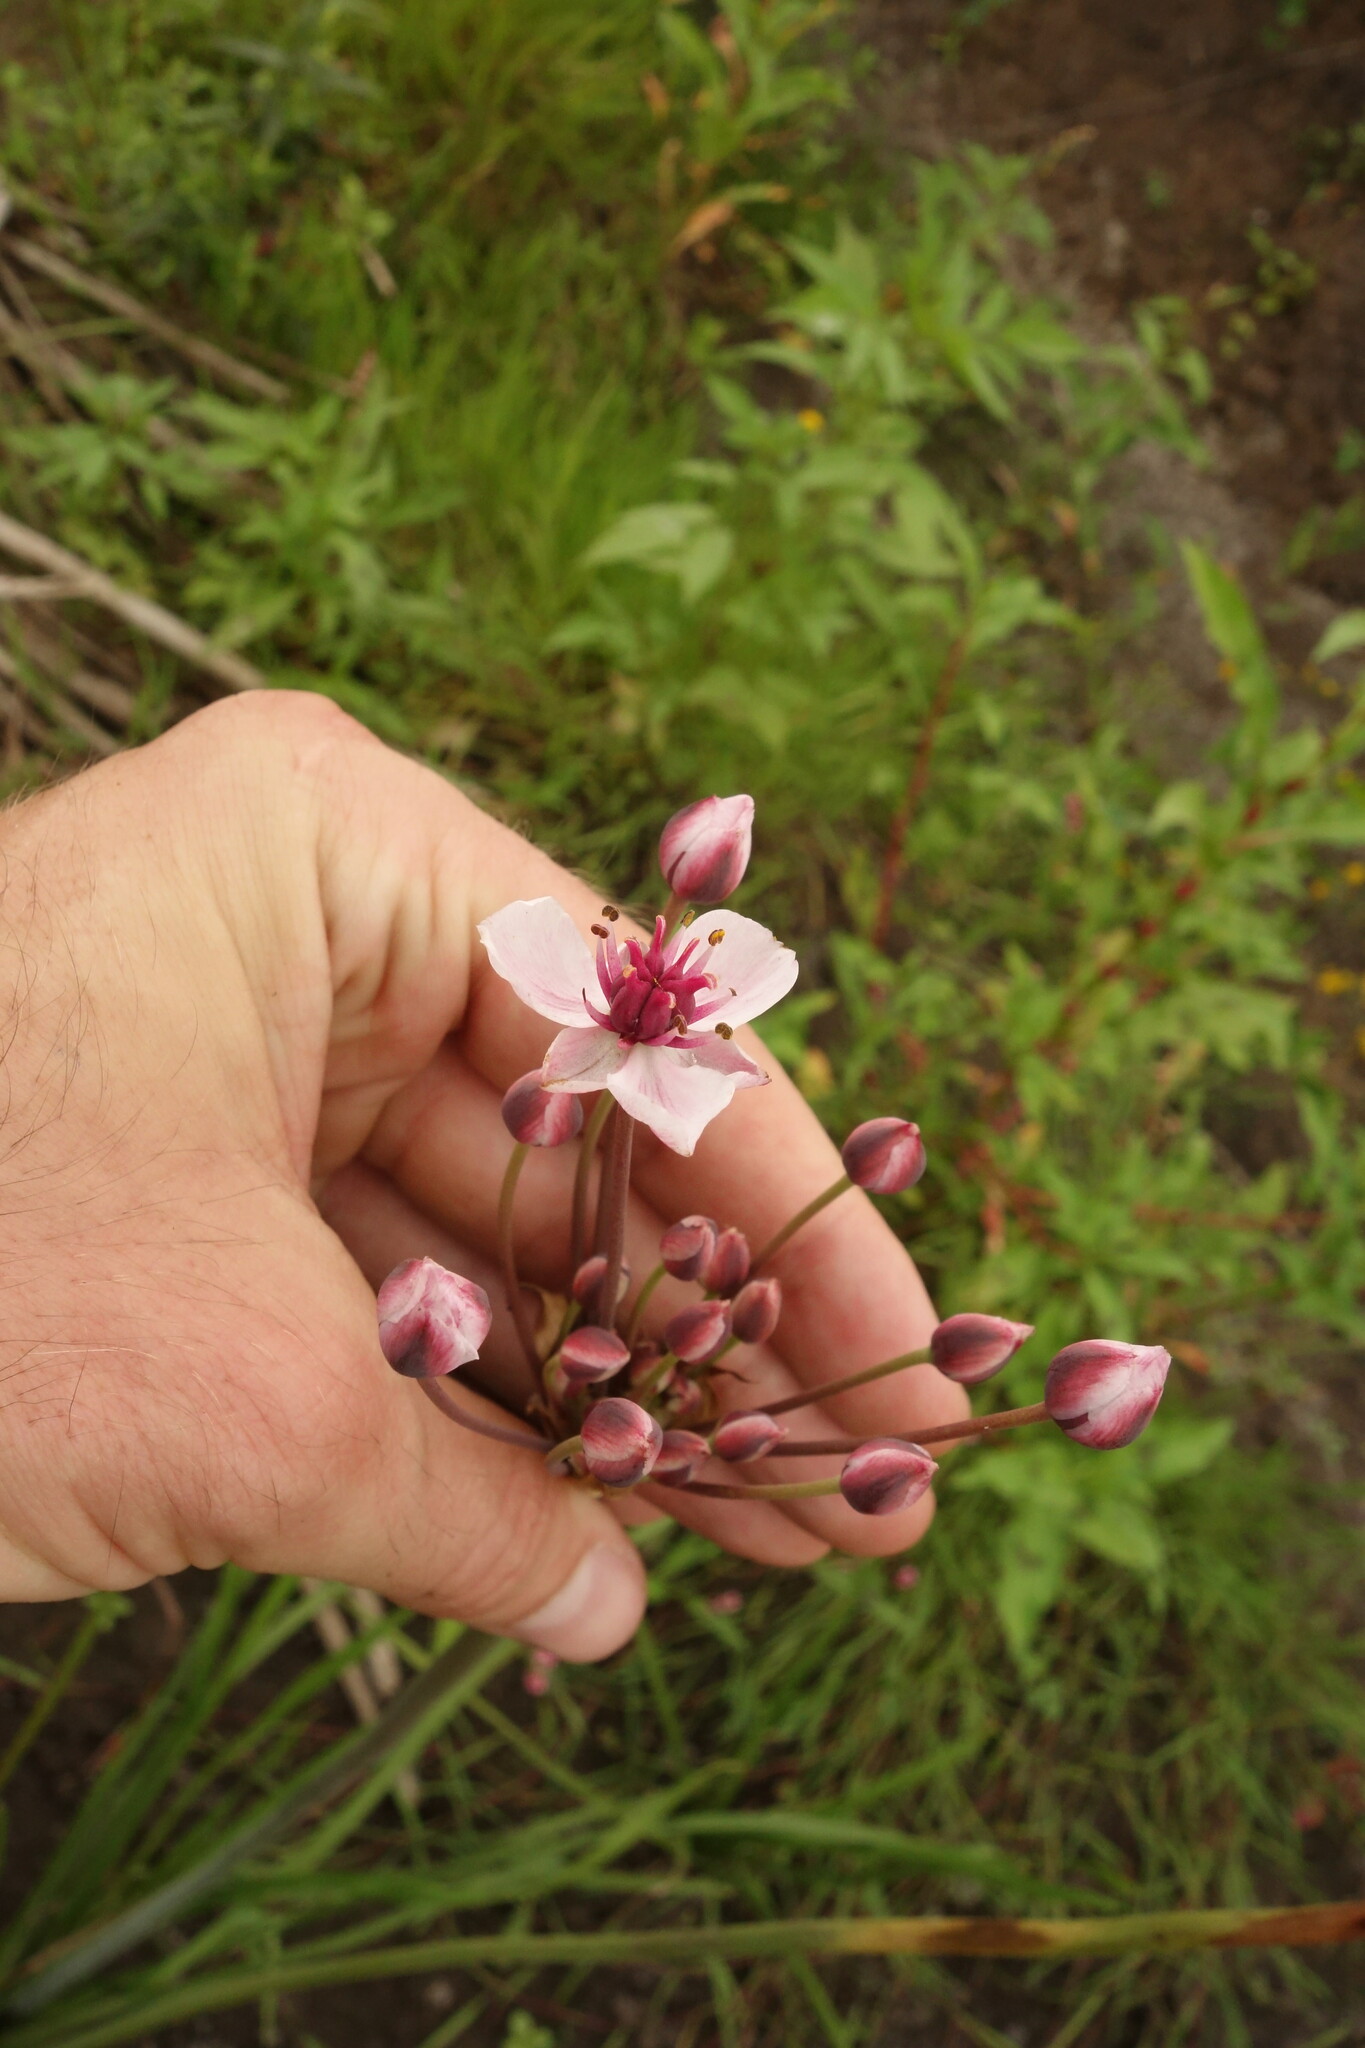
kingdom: Plantae
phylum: Tracheophyta
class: Liliopsida
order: Alismatales
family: Butomaceae
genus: Butomus
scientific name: Butomus umbellatus
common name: Flowering-rush
